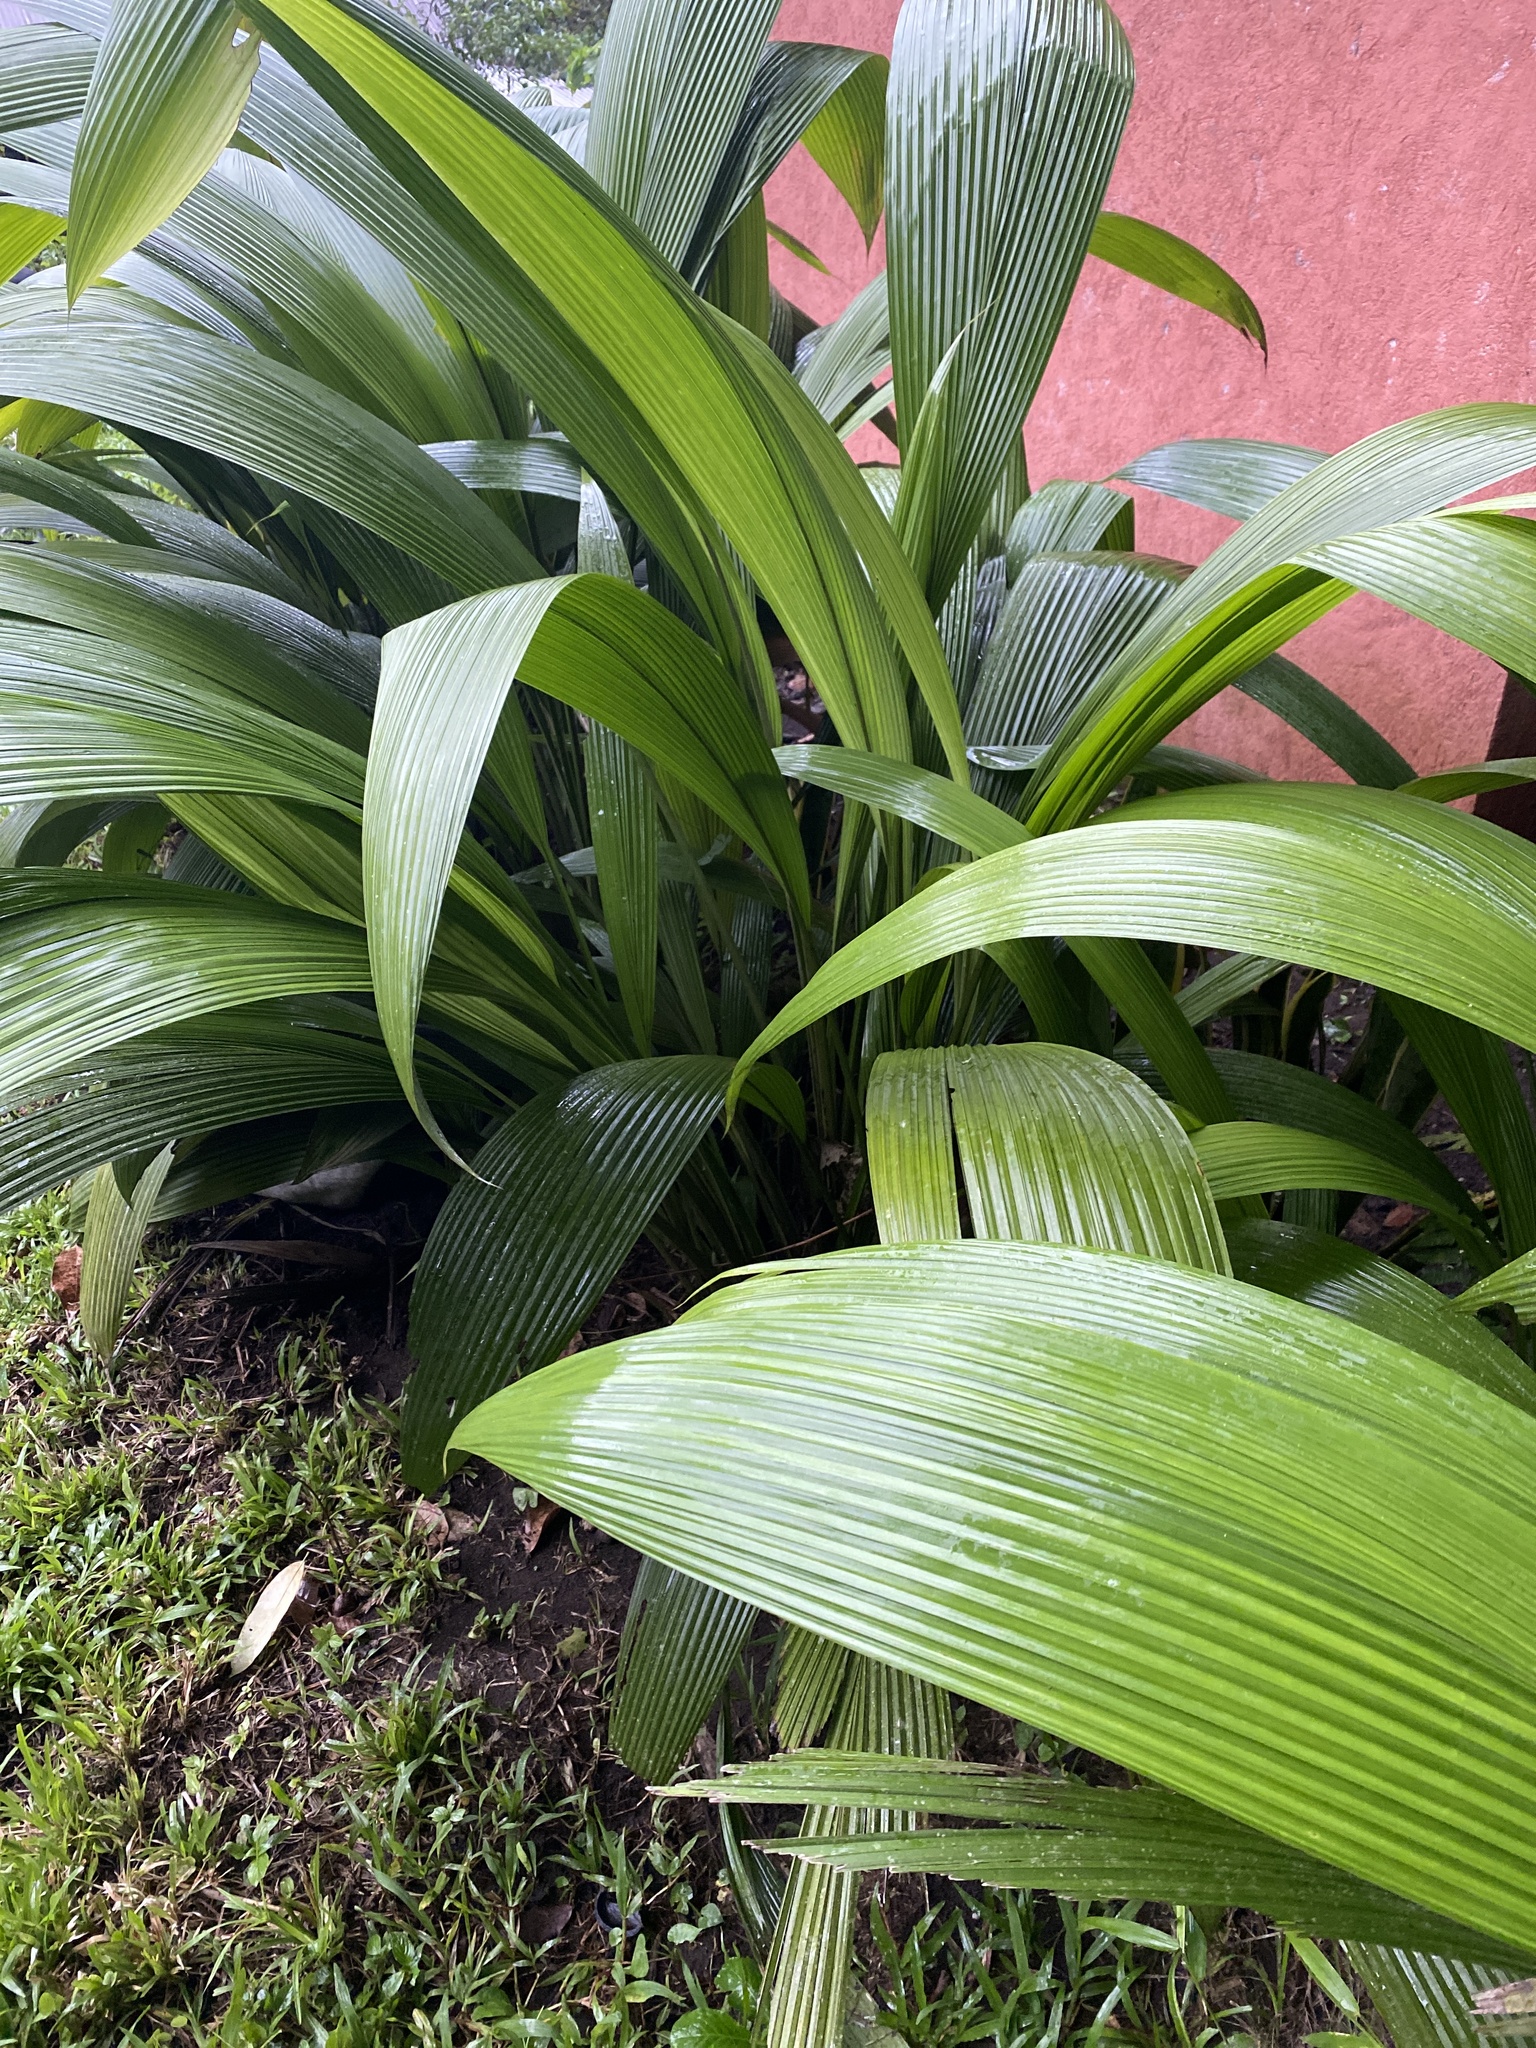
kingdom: Plantae
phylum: Tracheophyta
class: Liliopsida
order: Asparagales
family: Hypoxidaceae
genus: Curculigo
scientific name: Curculigo capitulata
